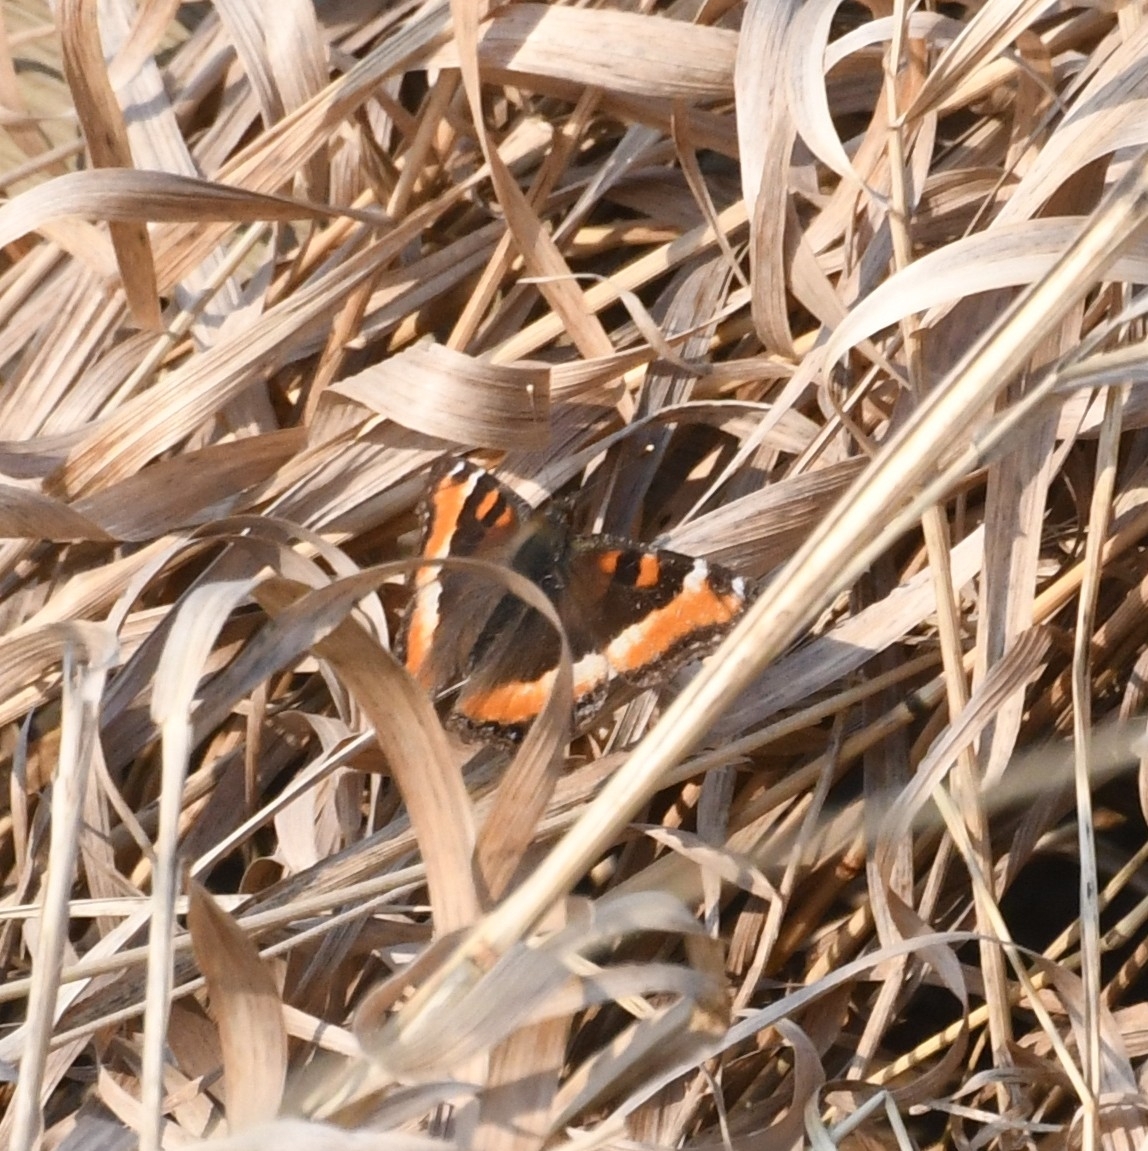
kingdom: Animalia
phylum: Arthropoda
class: Insecta
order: Lepidoptera
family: Nymphalidae
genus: Aglais
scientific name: Aglais milberti
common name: Milbert's tortoiseshell
